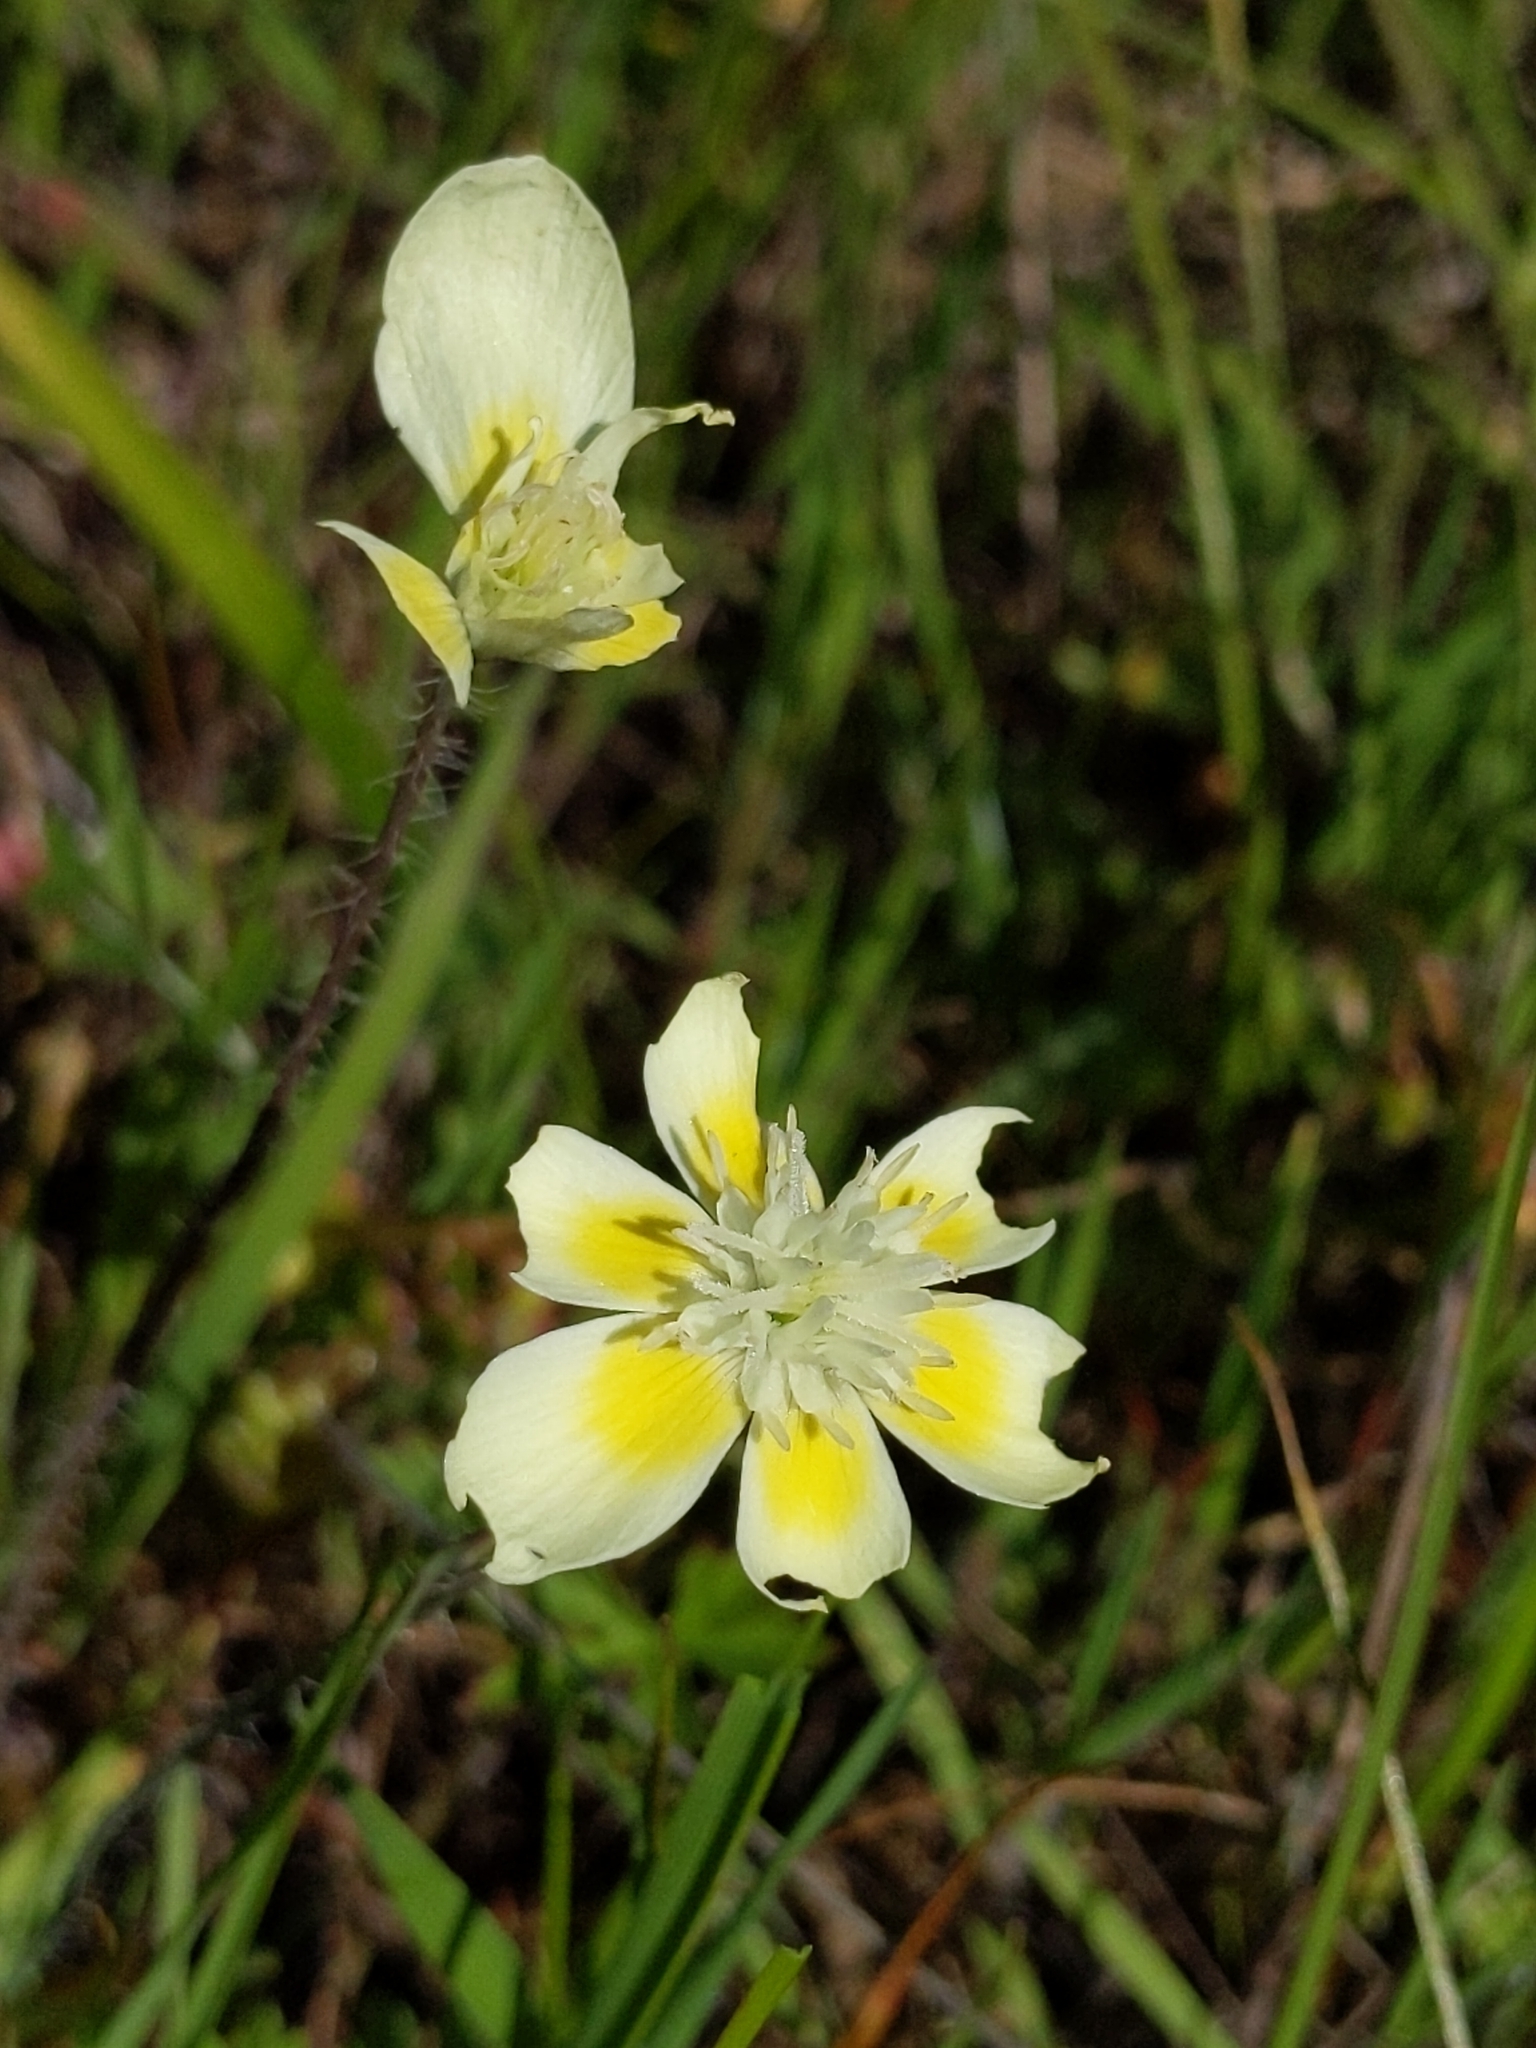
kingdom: Plantae
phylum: Tracheophyta
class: Magnoliopsida
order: Ranunculales
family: Papaveraceae
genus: Platystemon
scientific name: Platystemon californicus
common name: Cream-cups
